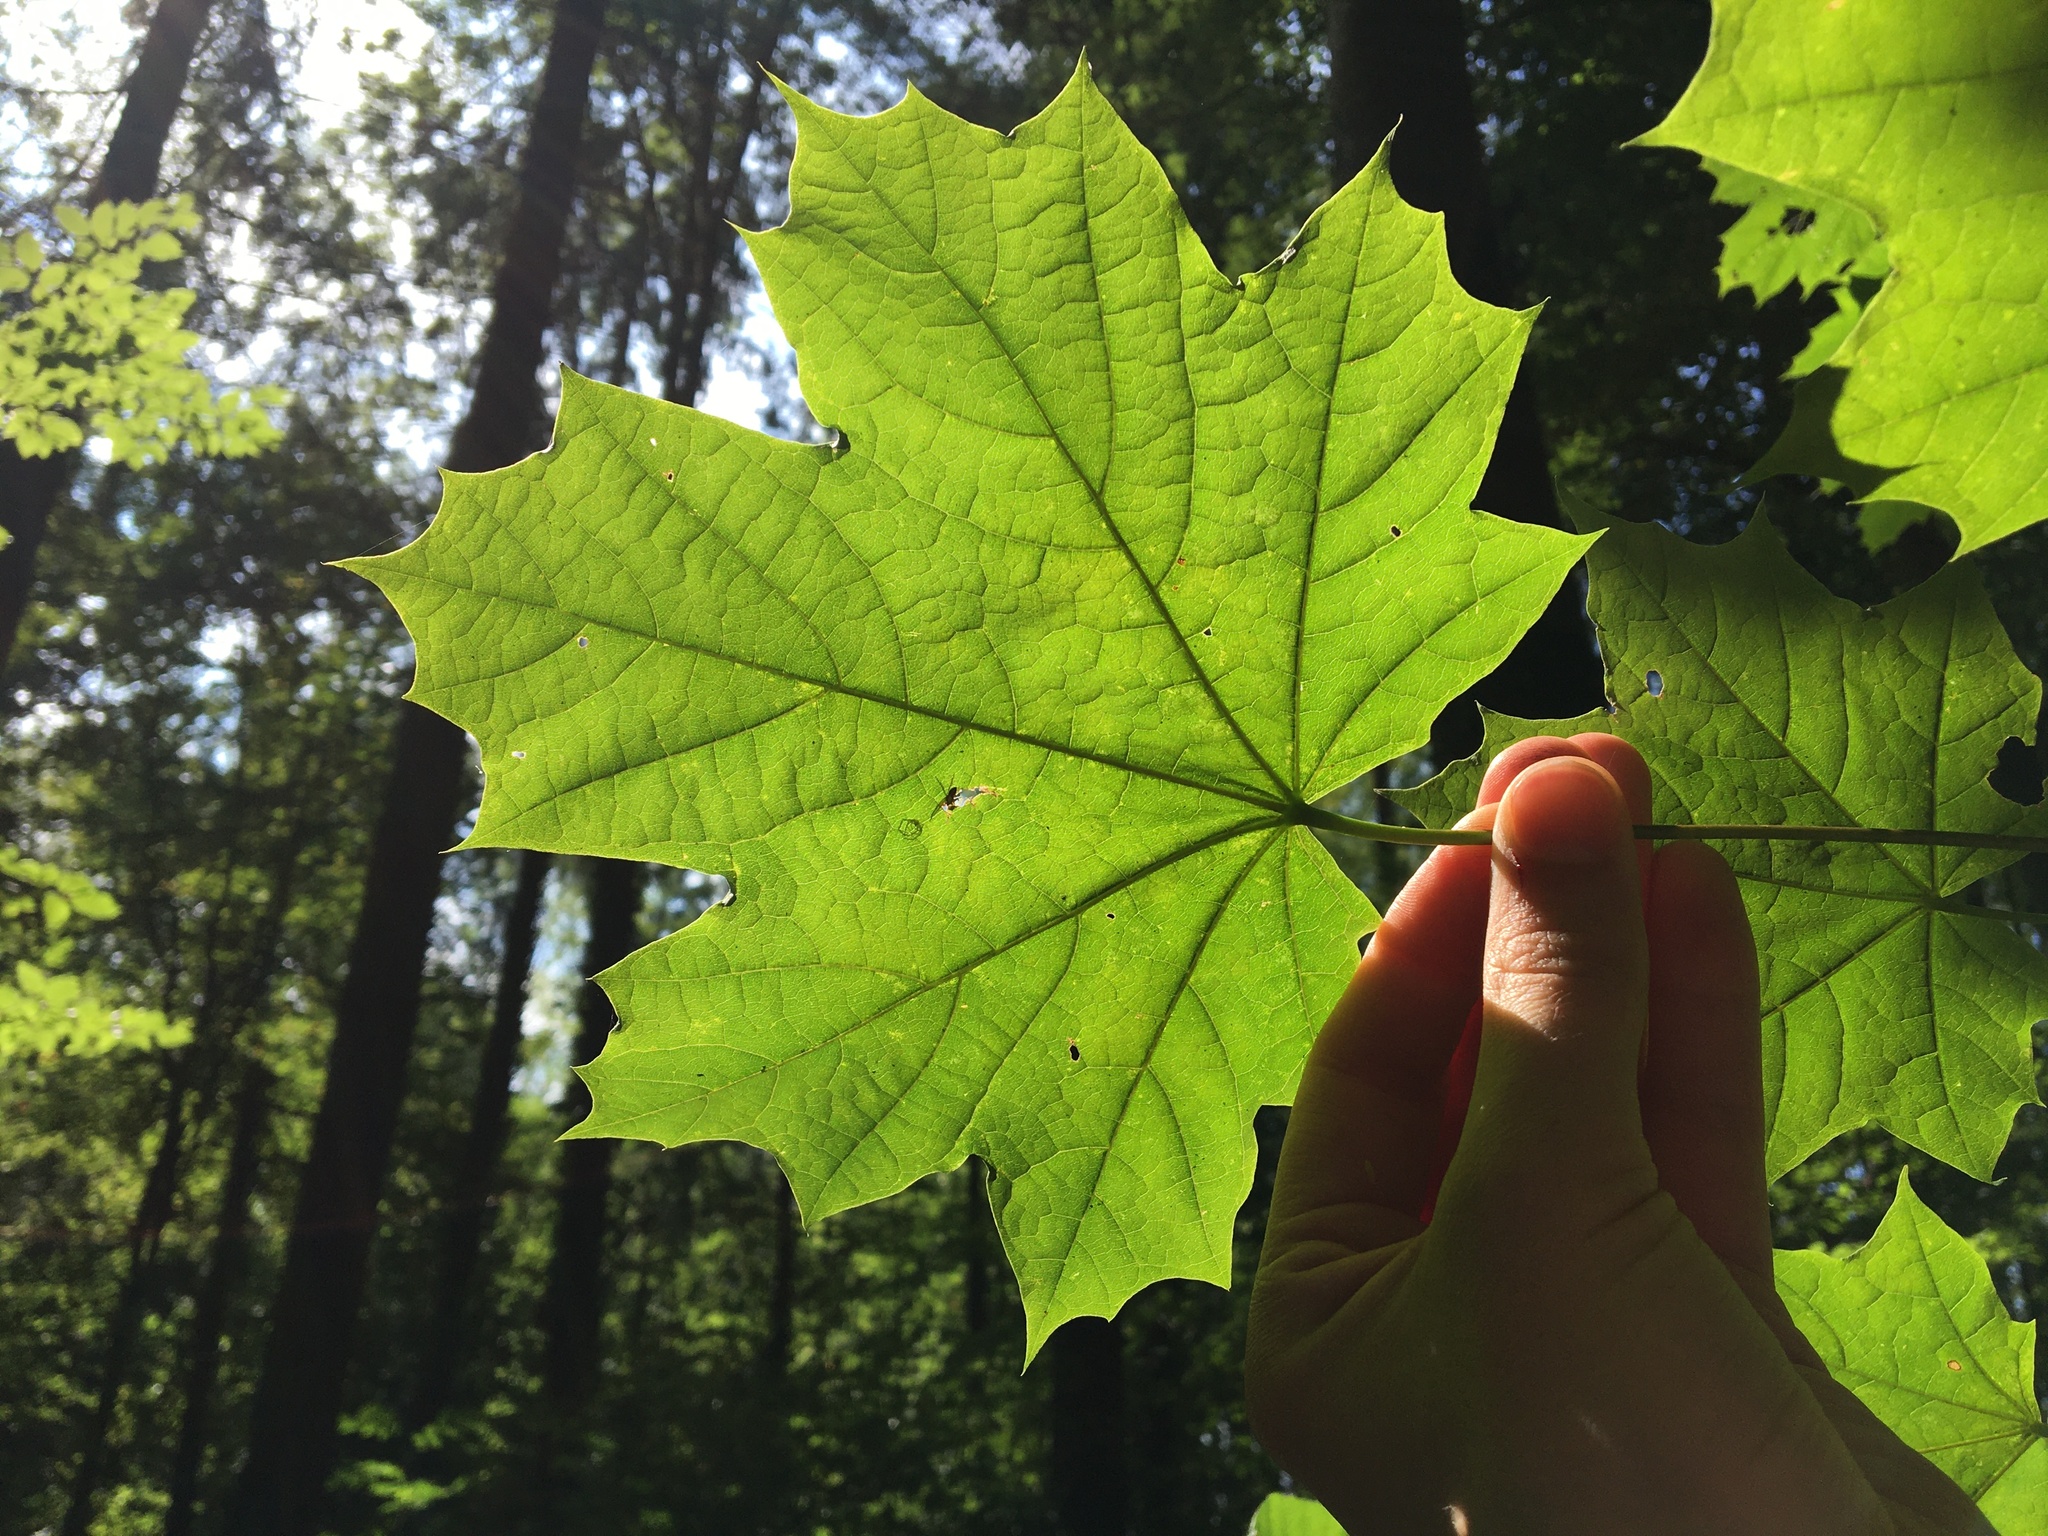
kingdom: Plantae
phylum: Tracheophyta
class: Magnoliopsida
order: Sapindales
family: Sapindaceae
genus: Acer
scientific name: Acer platanoides
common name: Norway maple
